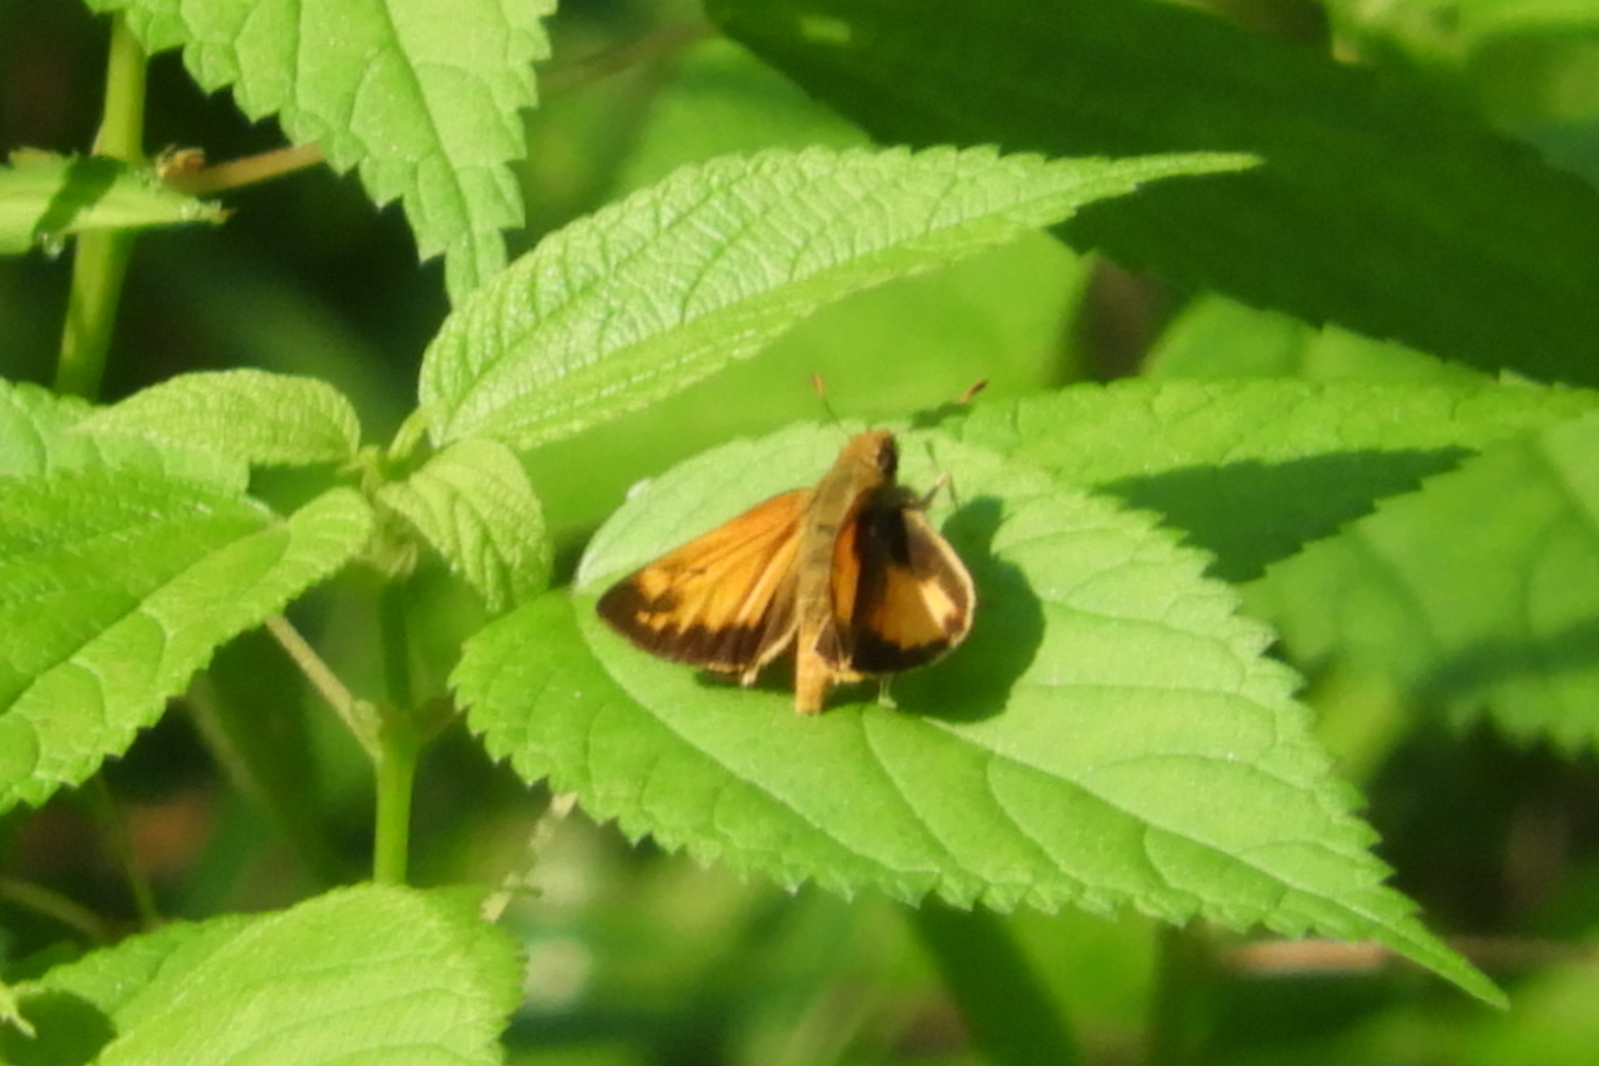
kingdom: Animalia
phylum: Arthropoda
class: Insecta
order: Lepidoptera
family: Hesperiidae
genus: Lon
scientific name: Lon zabulon
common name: Zabulon skipper
